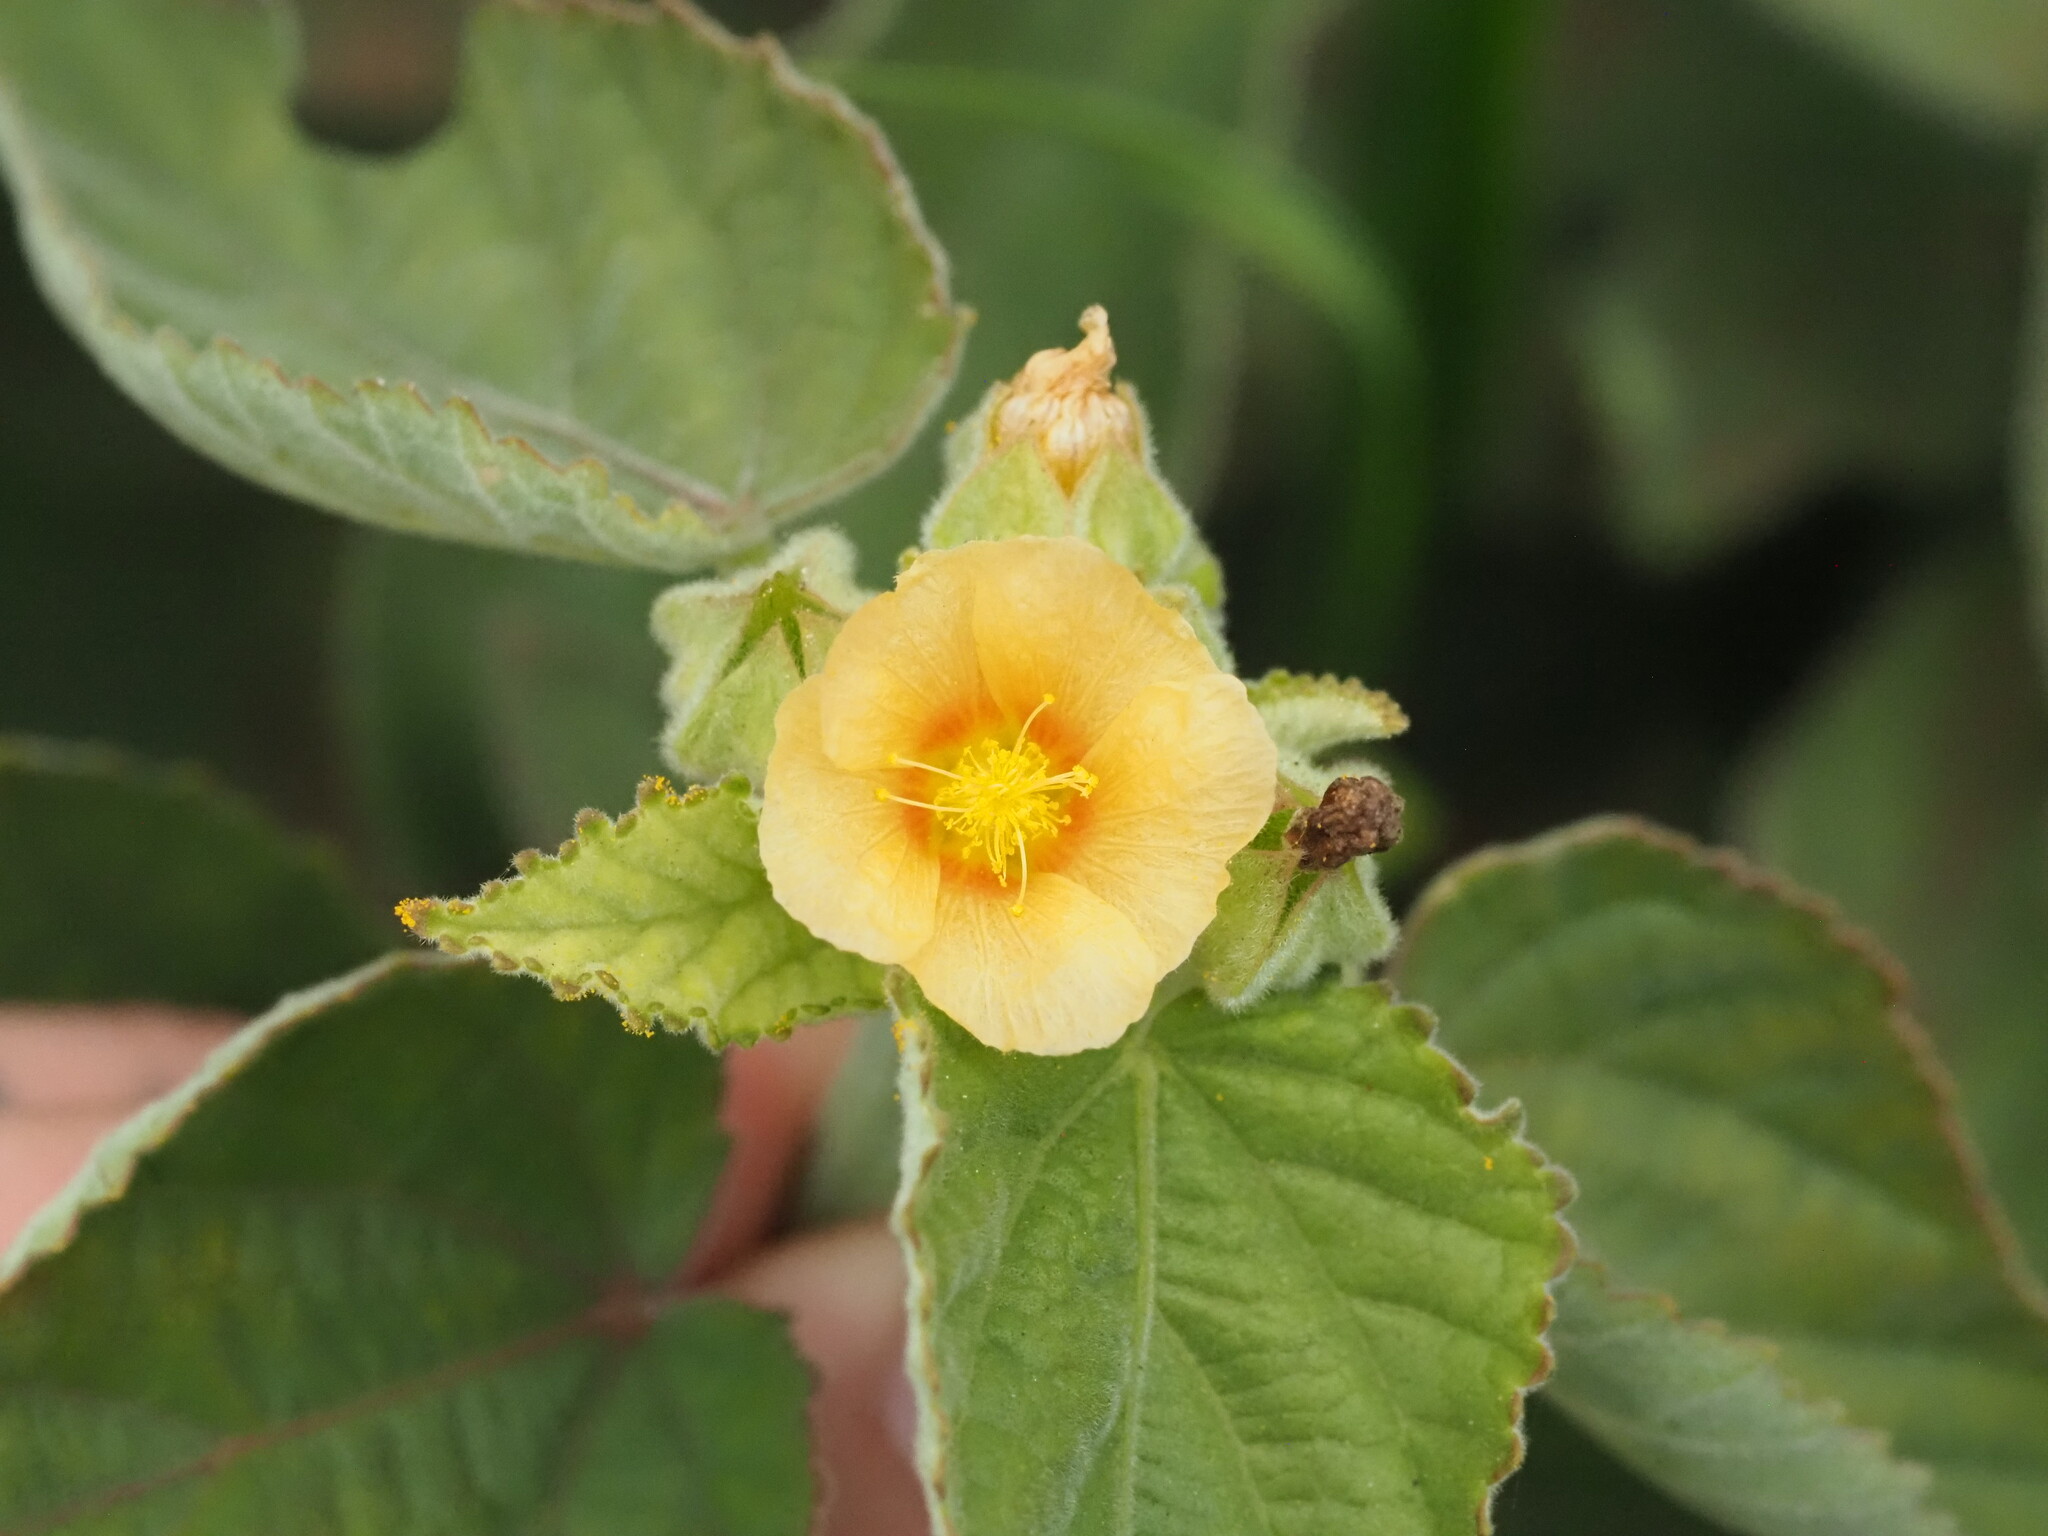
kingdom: Plantae
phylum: Tracheophyta
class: Magnoliopsida
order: Malvales
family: Malvaceae
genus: Sida
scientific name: Sida cordifolia
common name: Ilima
